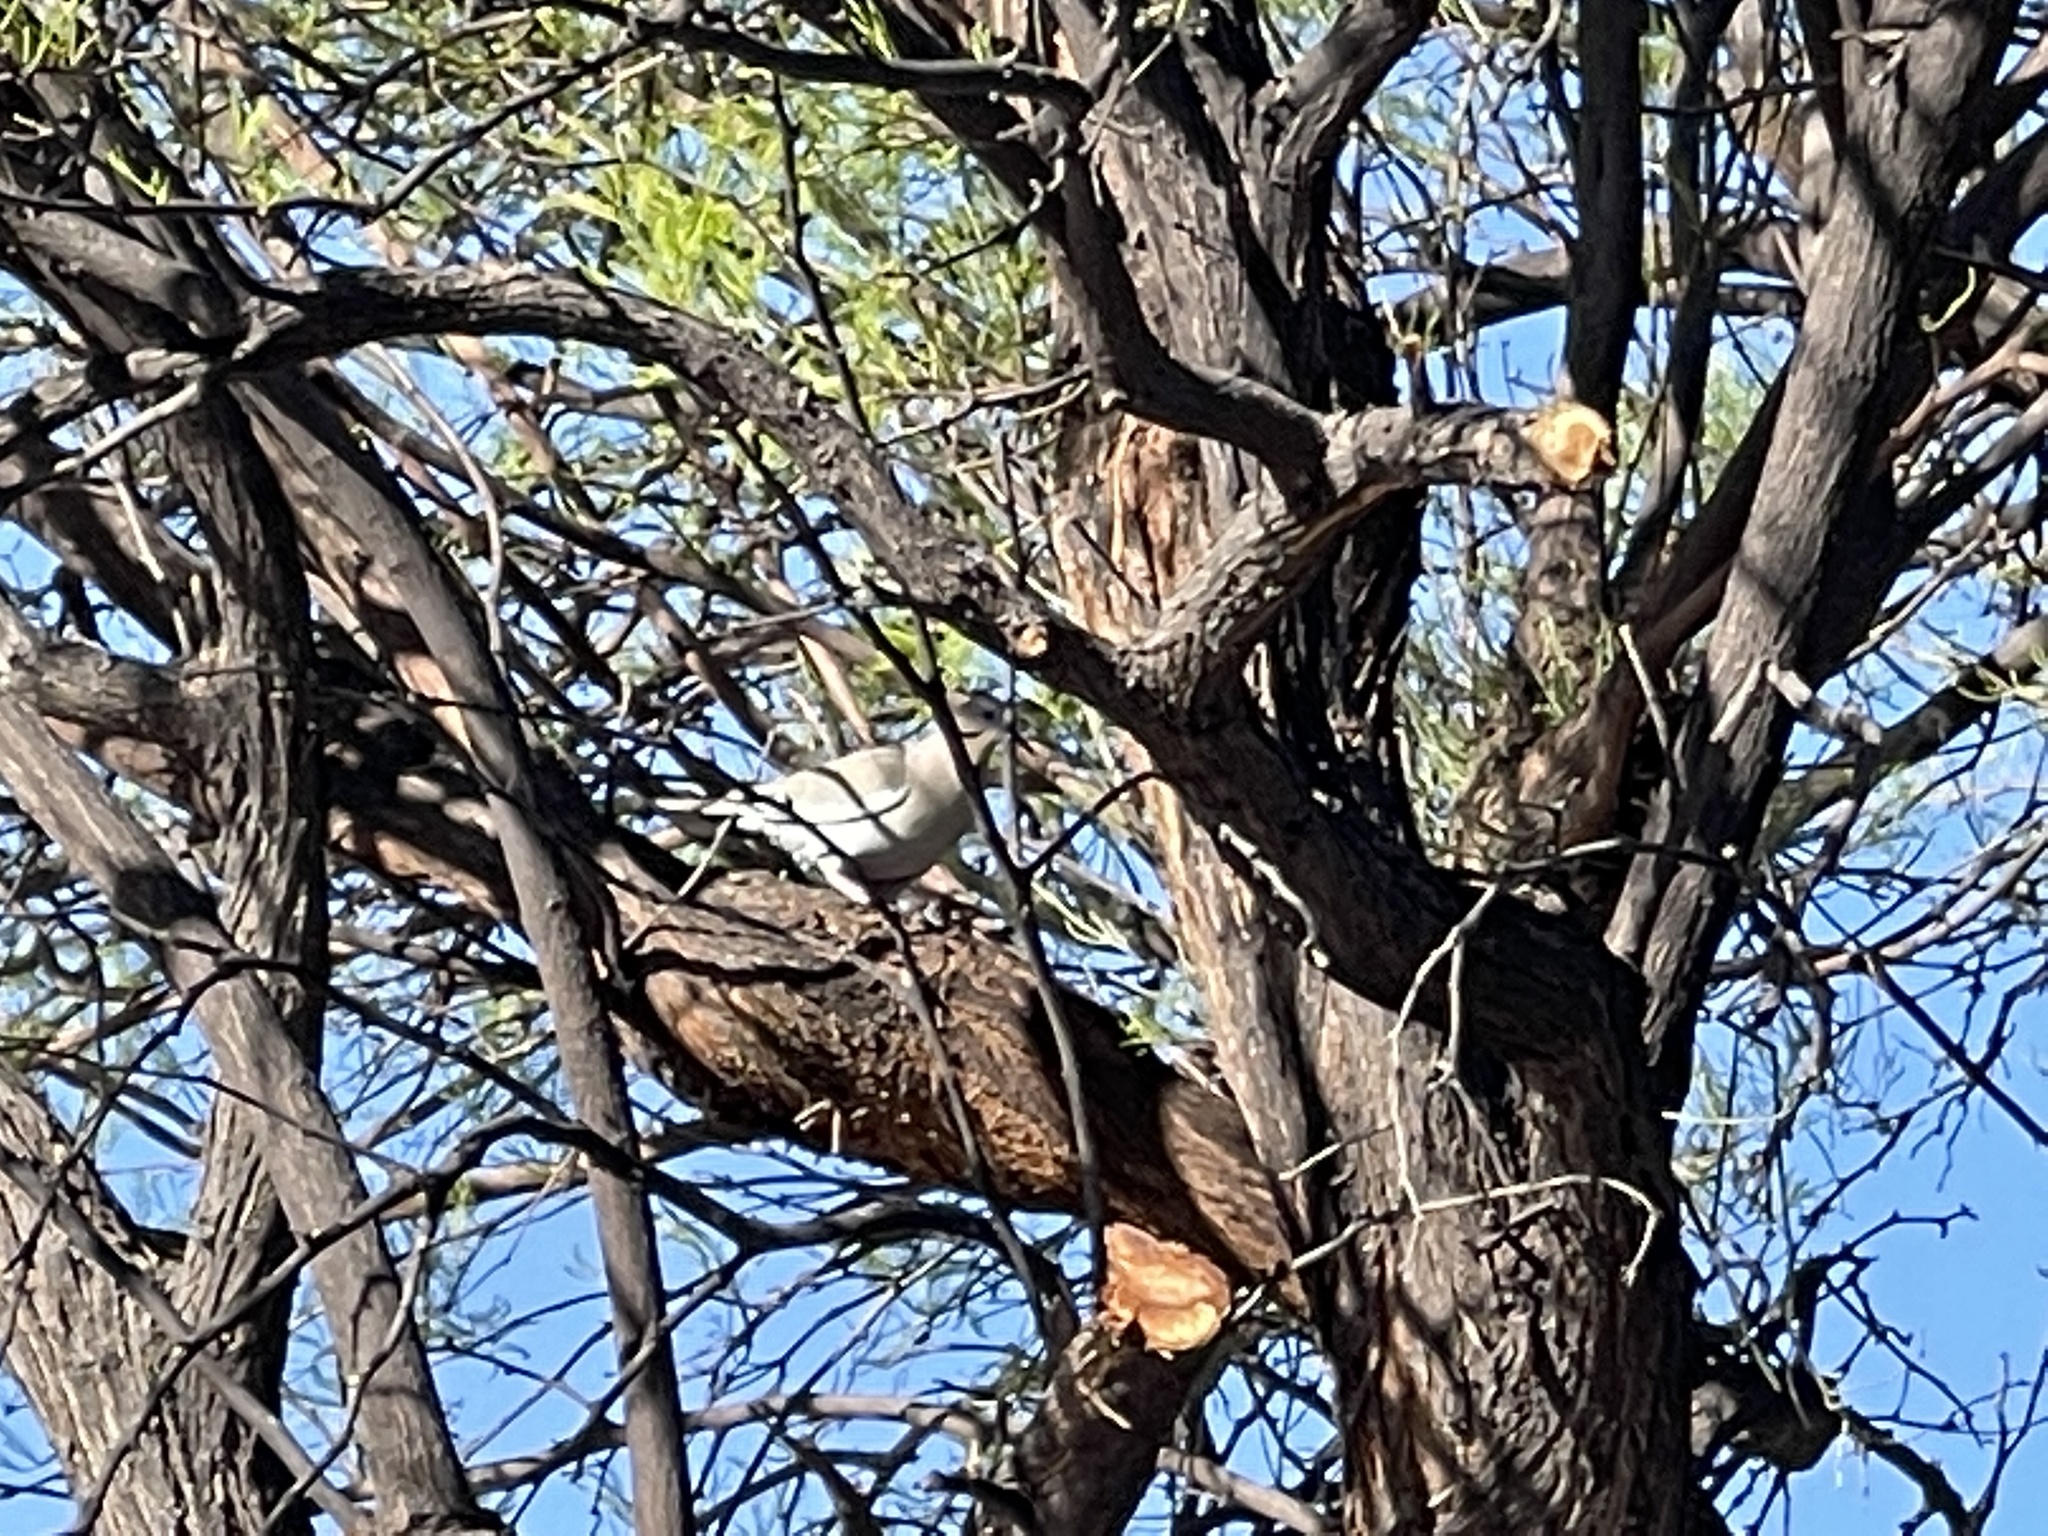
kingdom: Animalia
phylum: Chordata
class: Aves
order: Columbiformes
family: Columbidae
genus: Zenaida
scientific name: Zenaida asiatica
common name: White-winged dove
